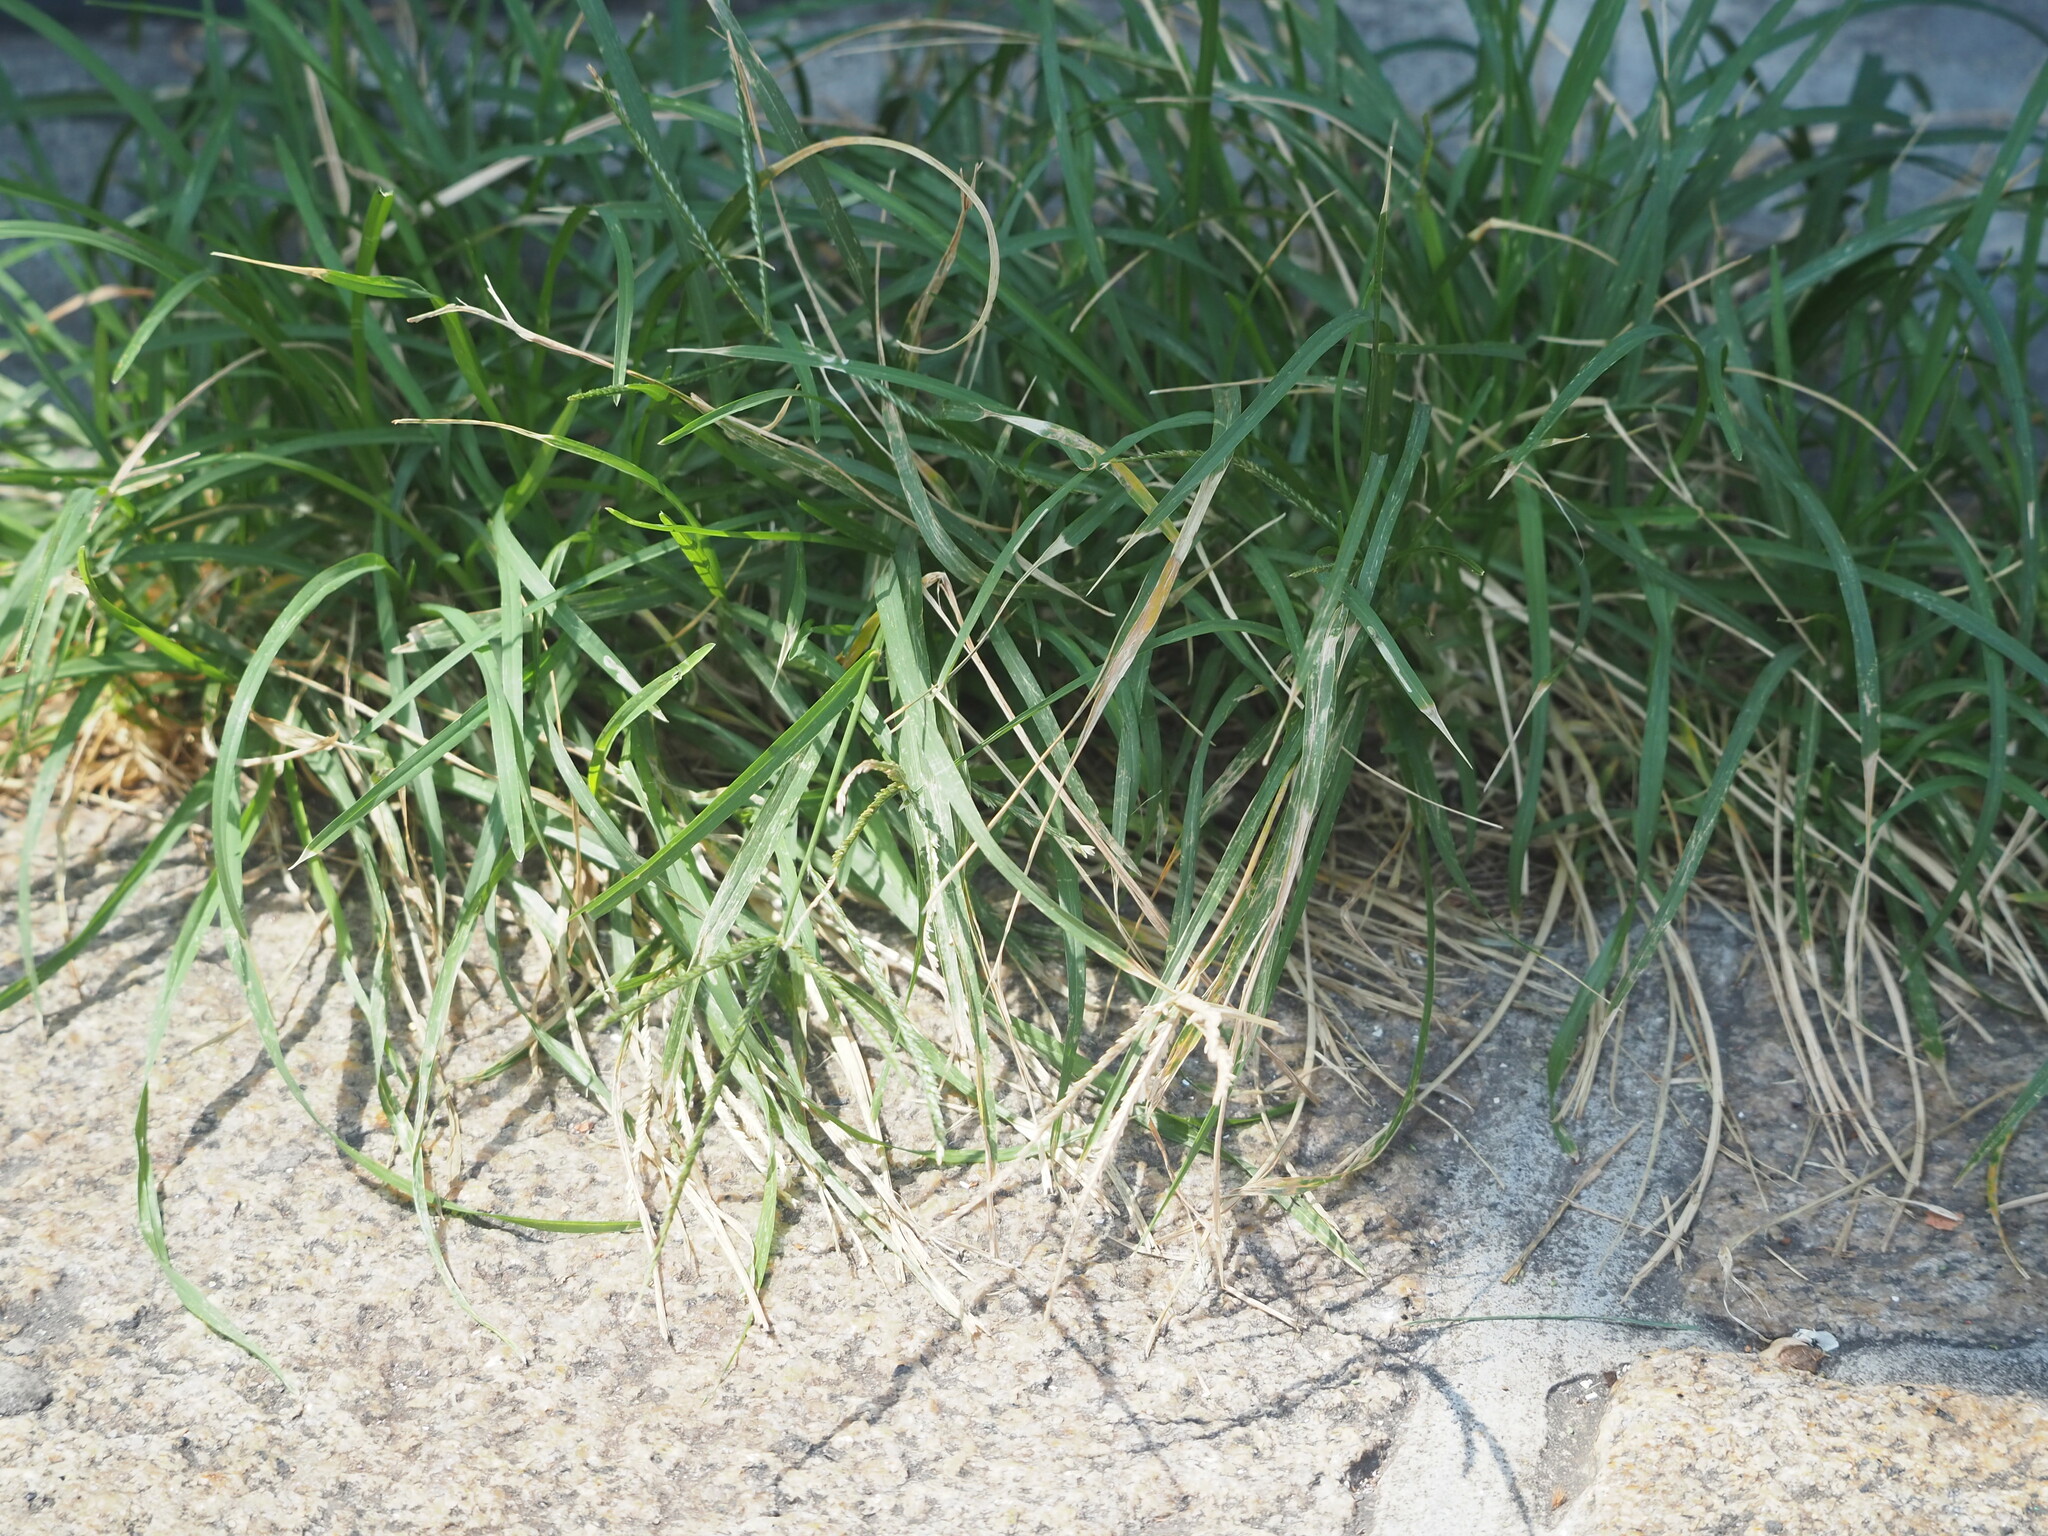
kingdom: Plantae
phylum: Tracheophyta
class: Liliopsida
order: Poales
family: Poaceae
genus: Eleusine
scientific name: Eleusine indica
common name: Yard-grass
